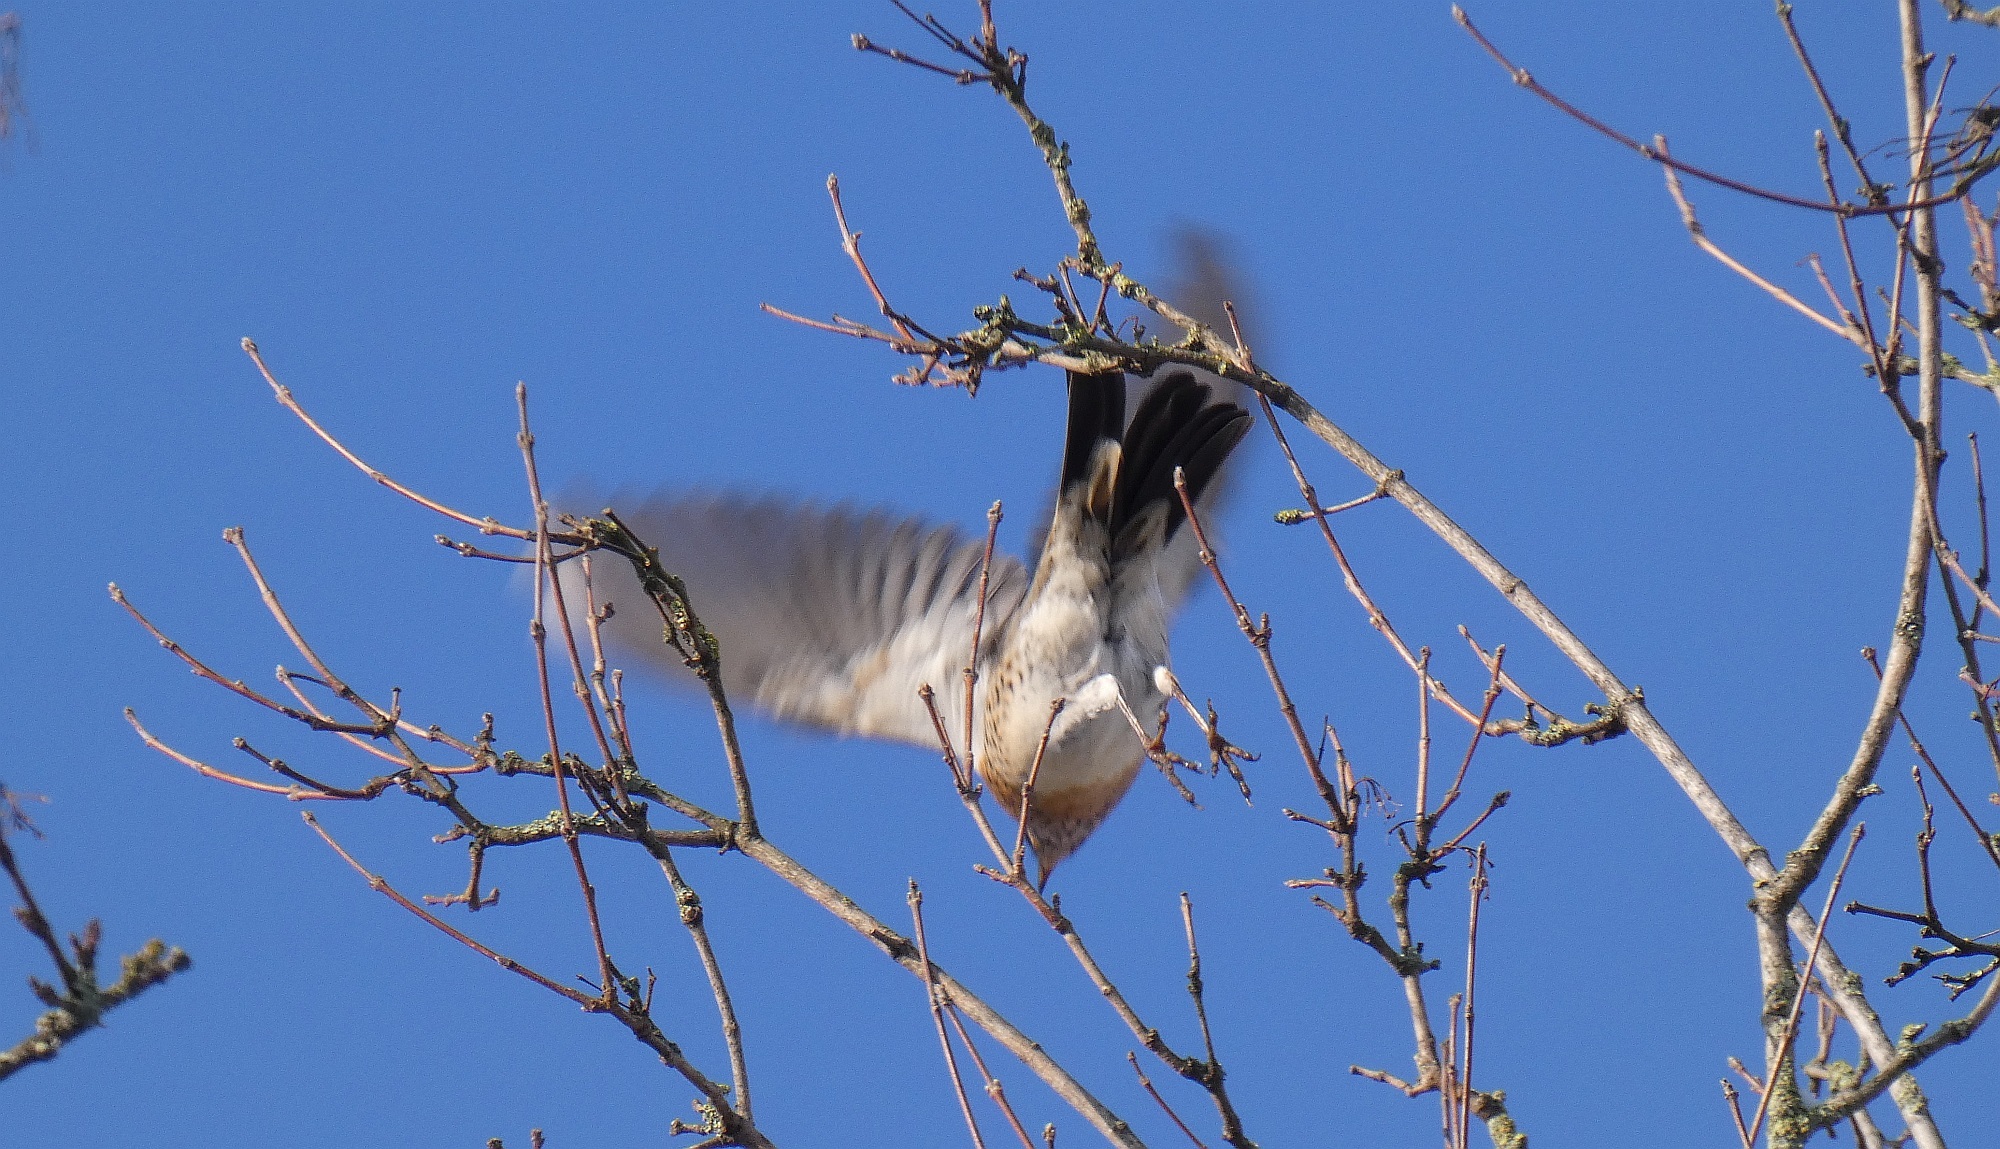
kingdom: Animalia
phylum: Chordata
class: Aves
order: Passeriformes
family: Turdidae
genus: Turdus
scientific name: Turdus pilaris
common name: Fieldfare
